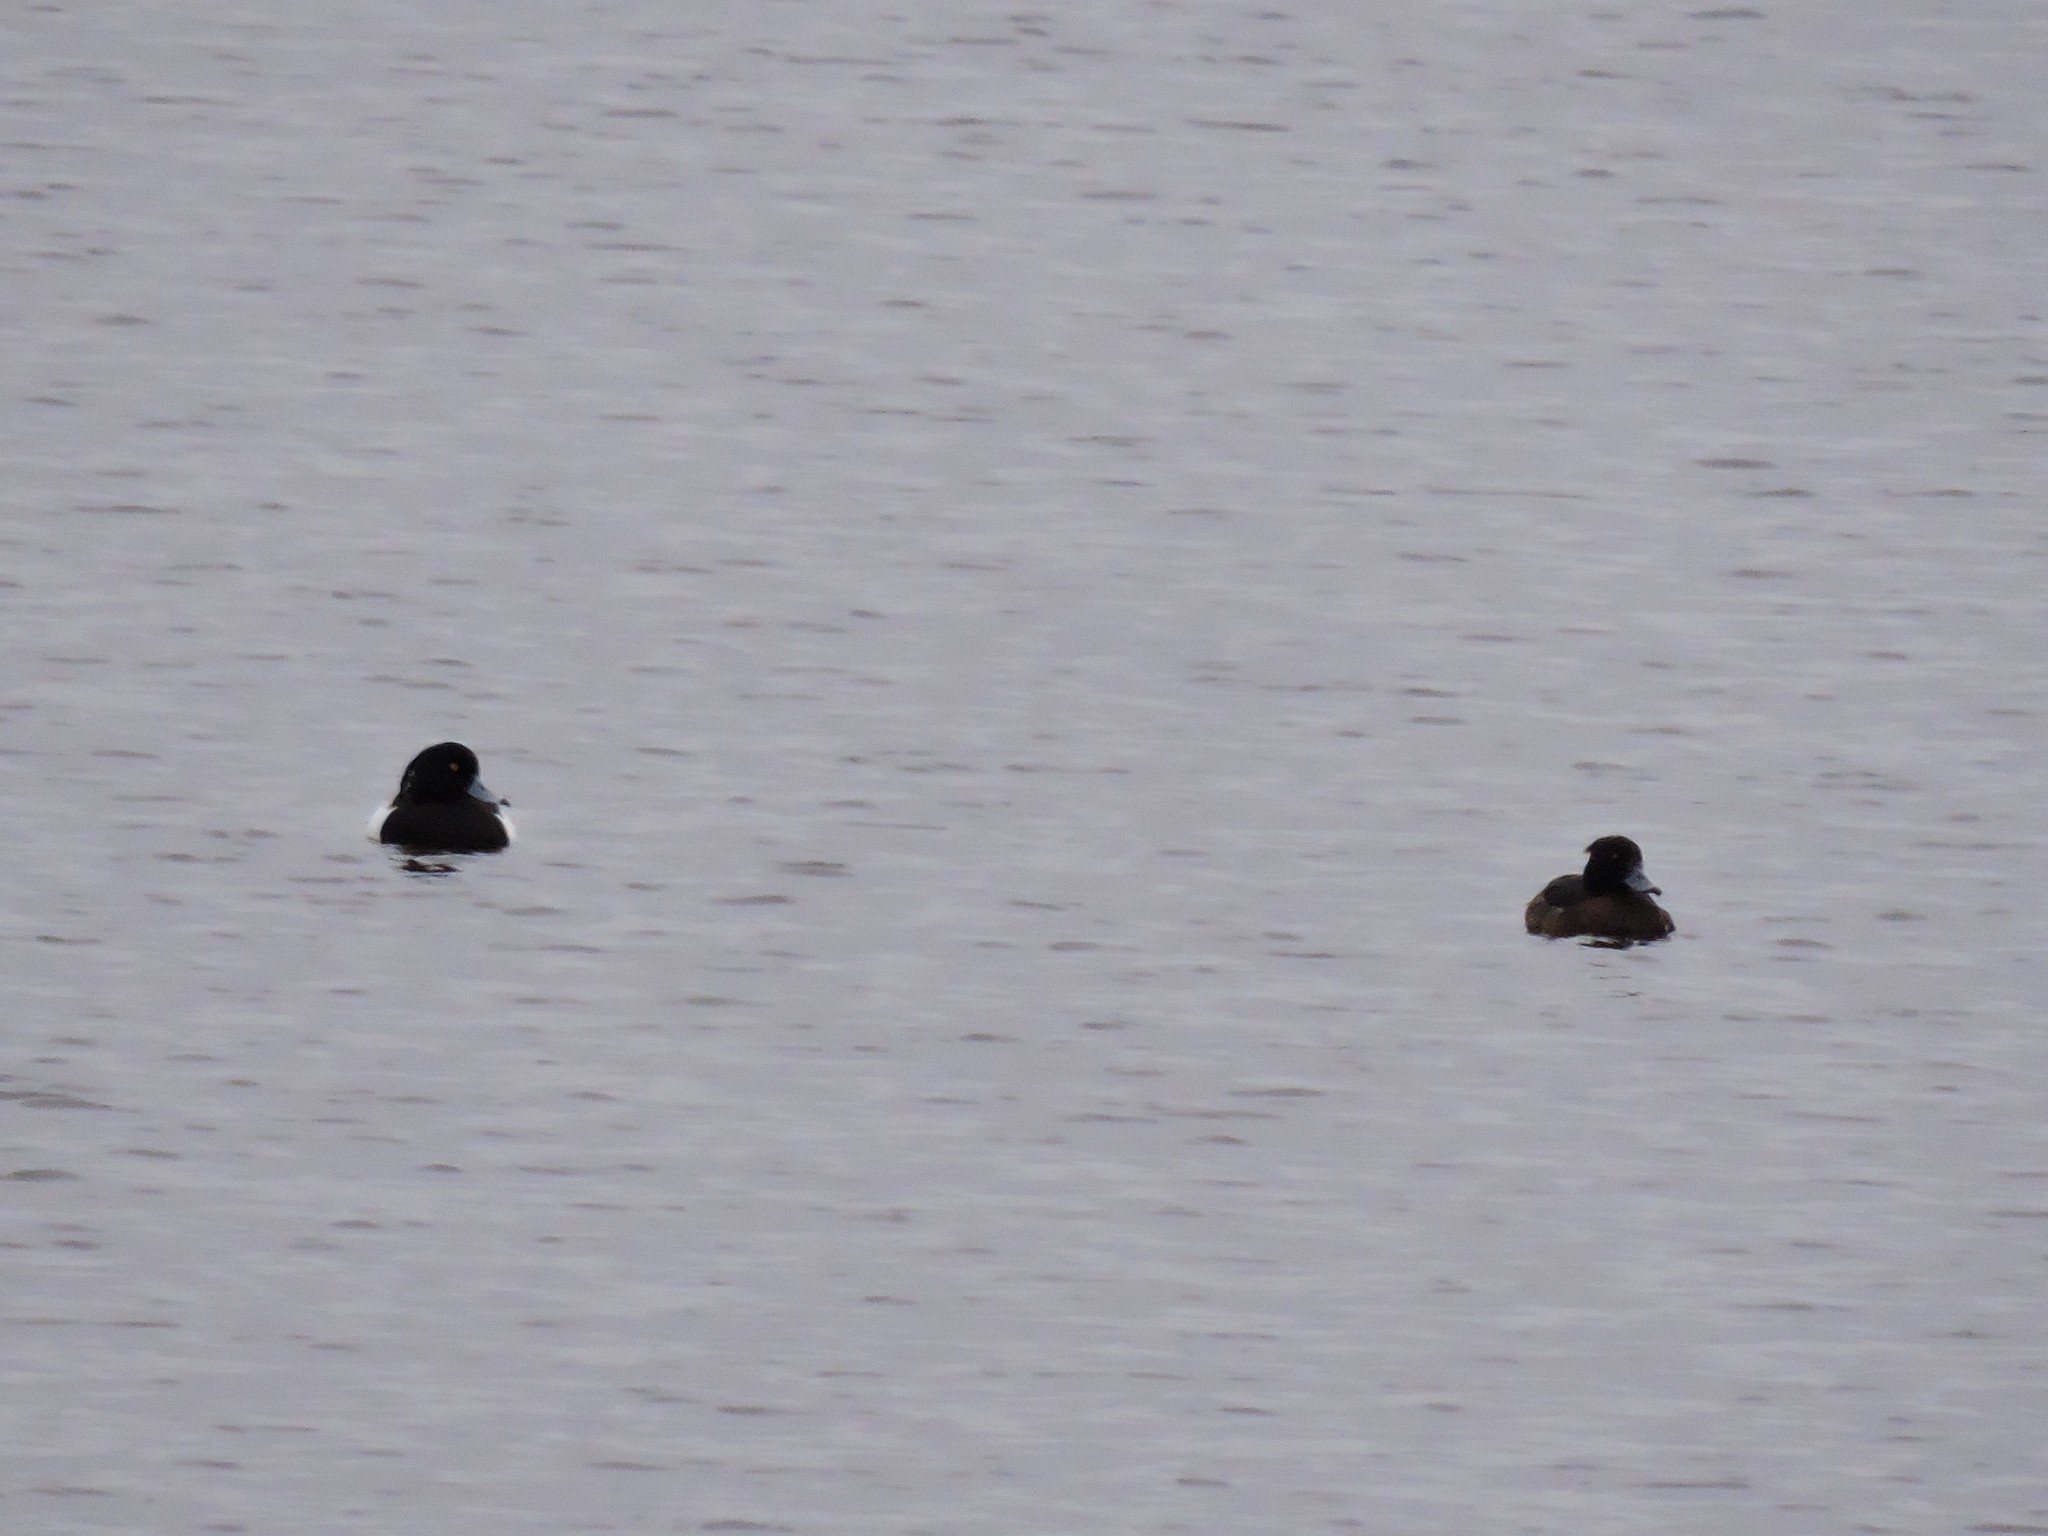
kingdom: Animalia
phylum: Chordata
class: Aves
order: Anseriformes
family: Anatidae
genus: Aythya
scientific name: Aythya fuligula
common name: Tufted duck
